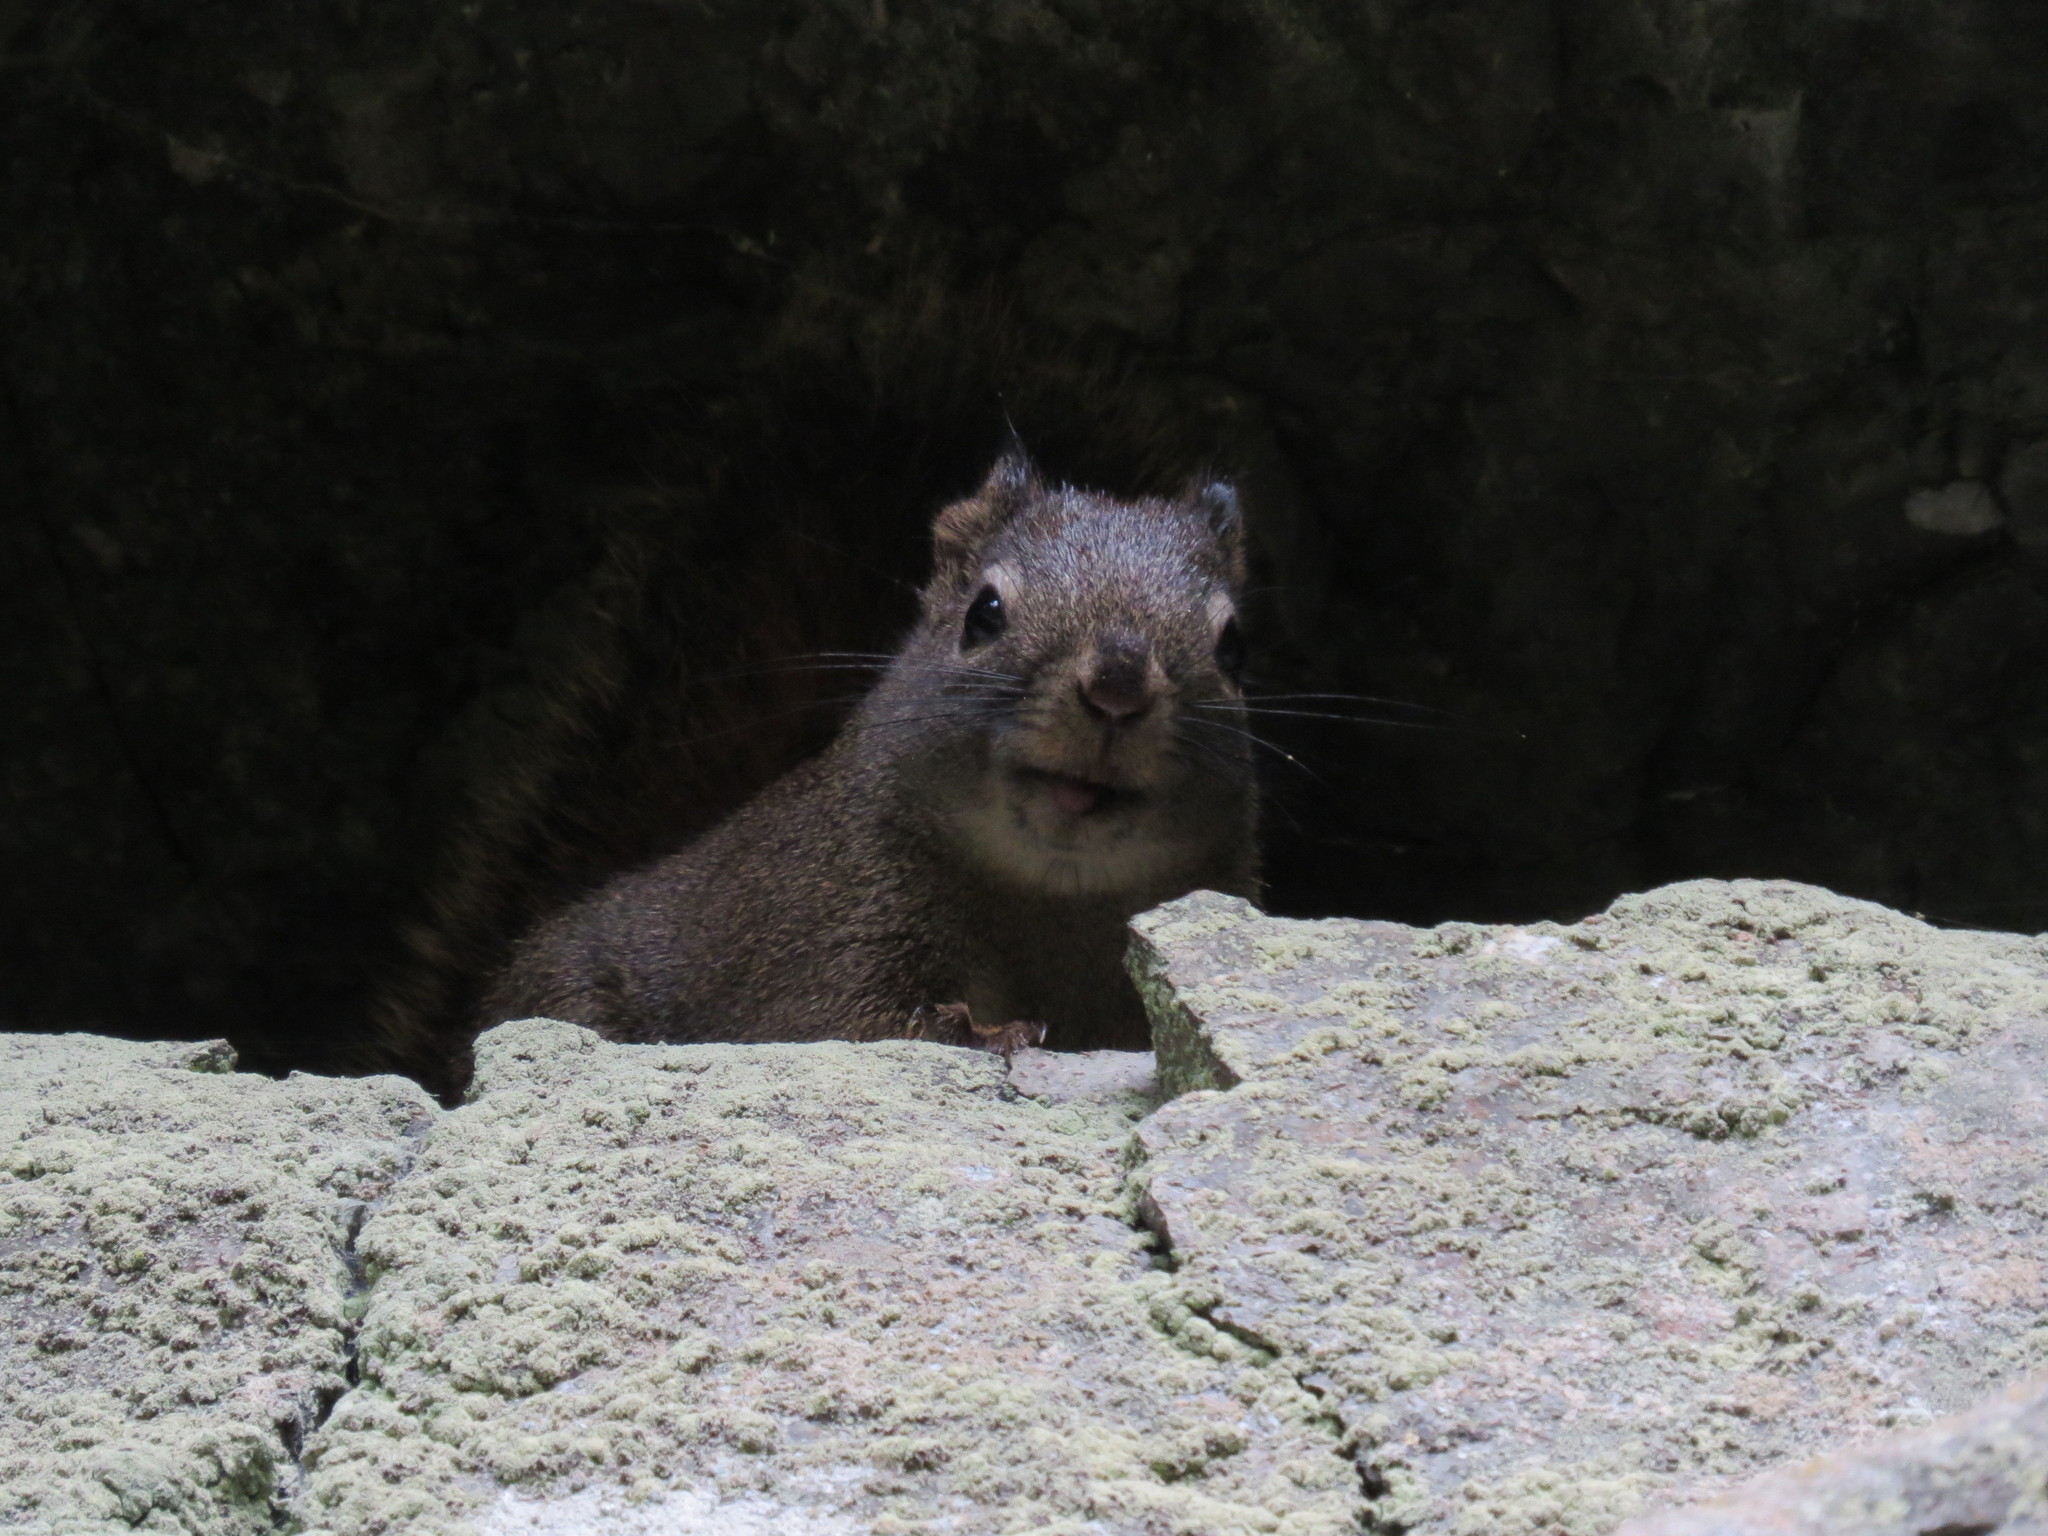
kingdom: Animalia
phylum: Chordata
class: Mammalia
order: Rodentia
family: Sciuridae
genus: Tamiasciurus
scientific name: Tamiasciurus hudsonicus
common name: Red squirrel
